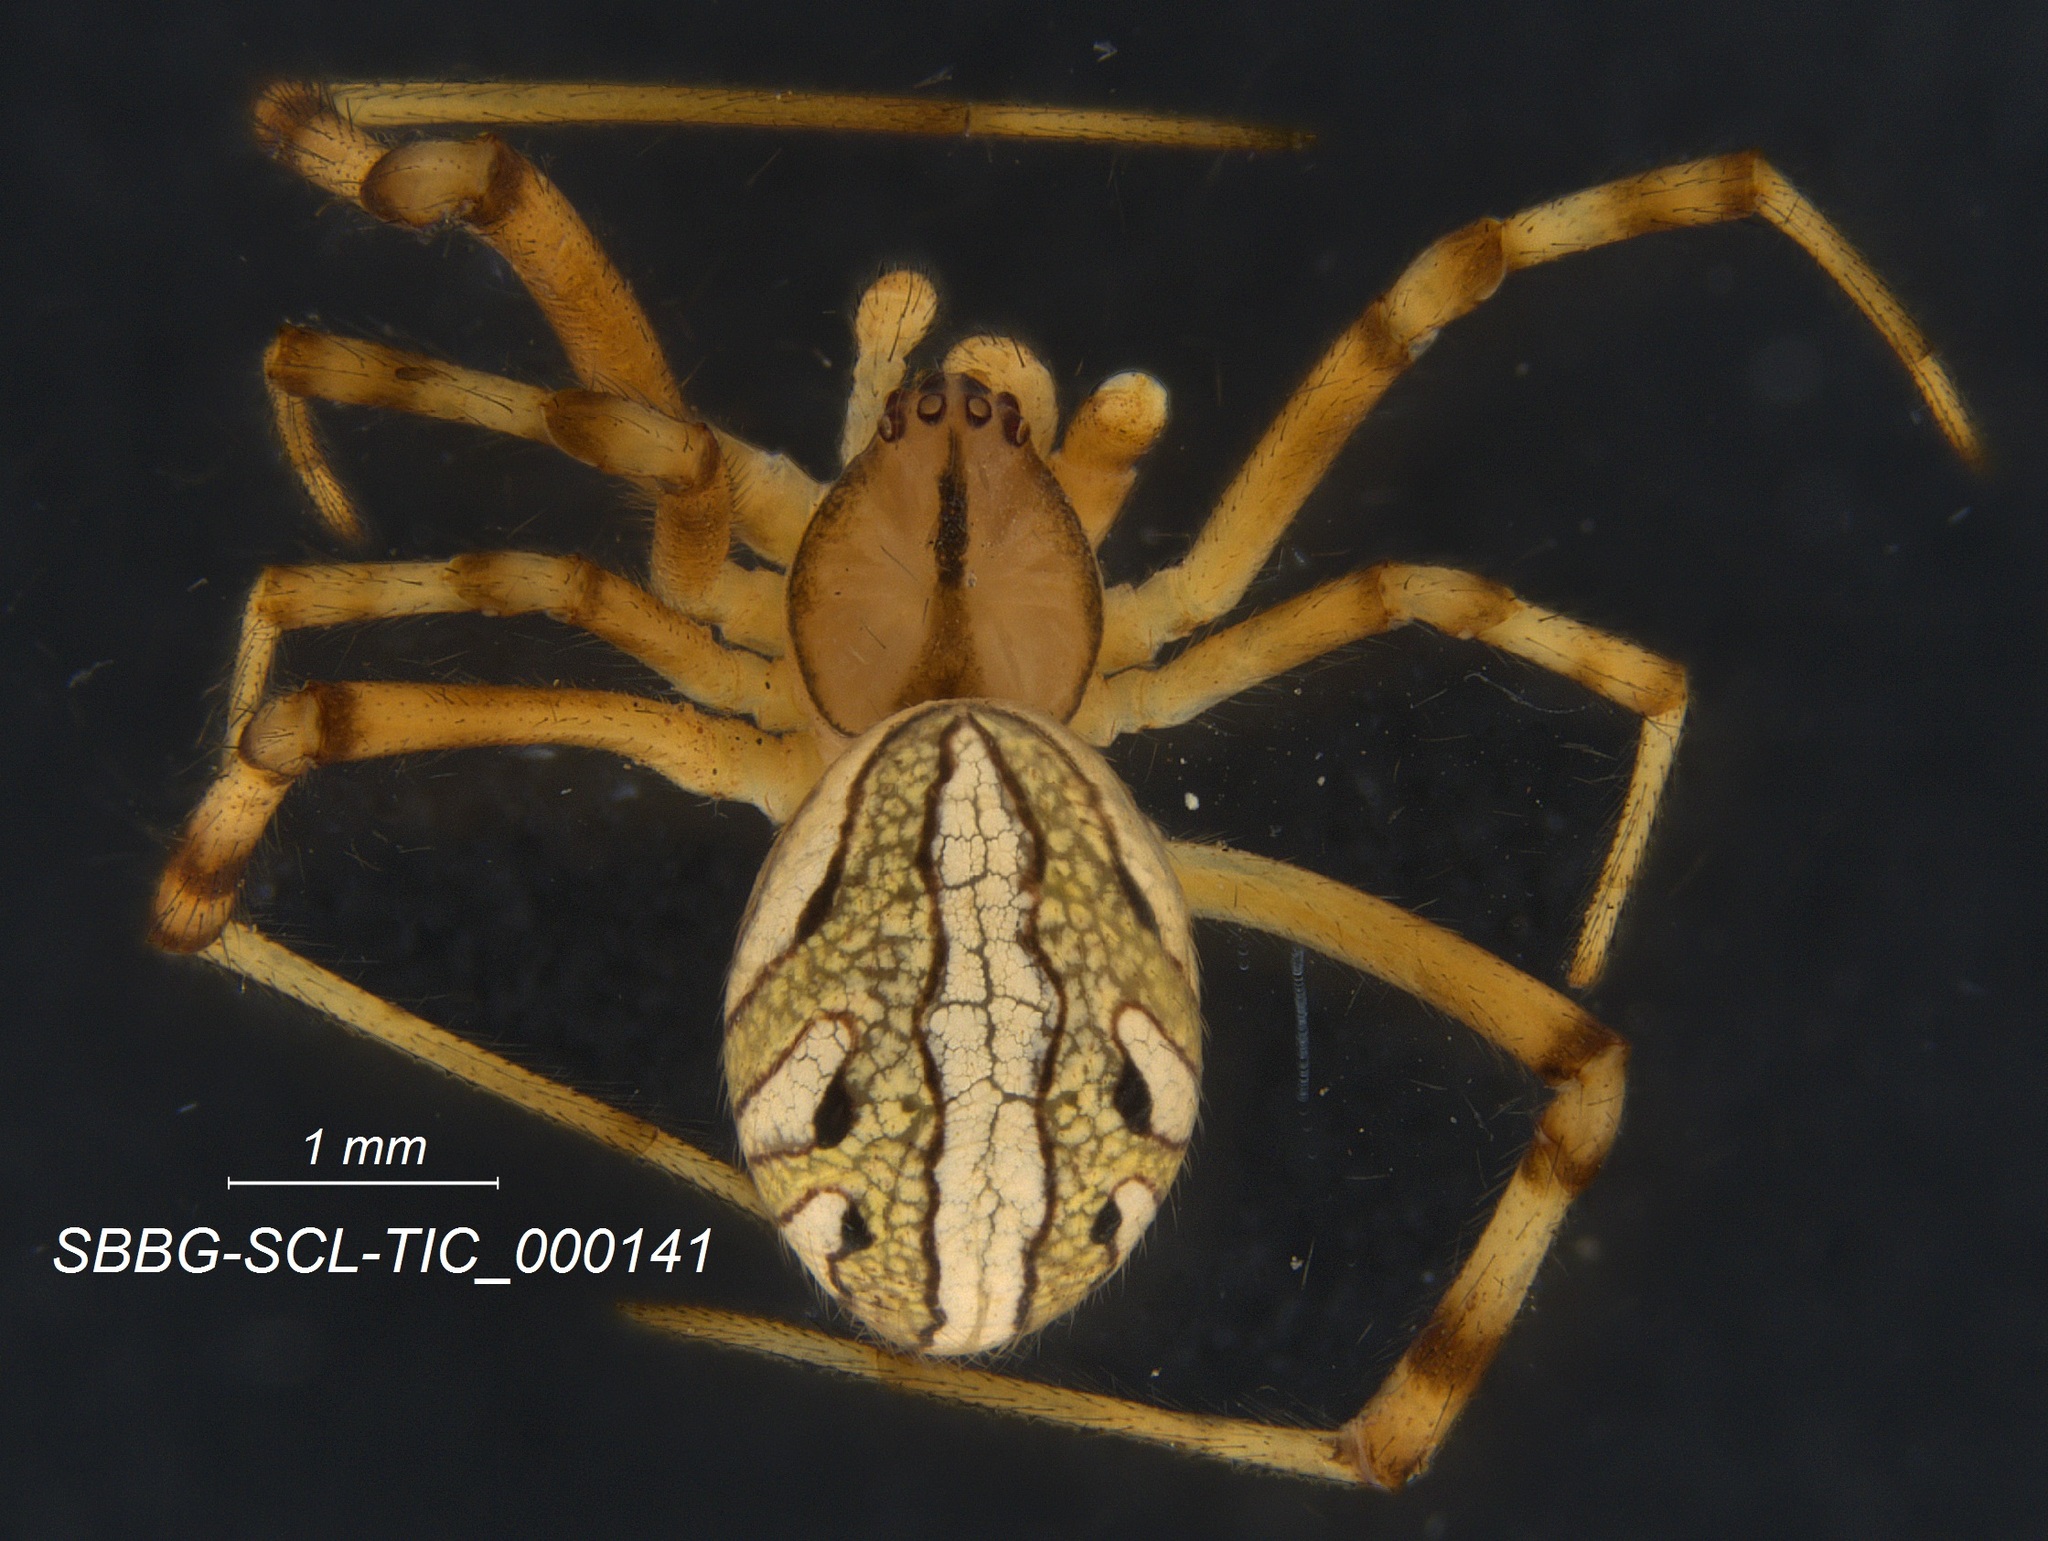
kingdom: Animalia
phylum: Arthropoda
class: Arachnida
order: Araneae
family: Theridiidae
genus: Latrodectus
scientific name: Latrodectus hesperus
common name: Western black widow
